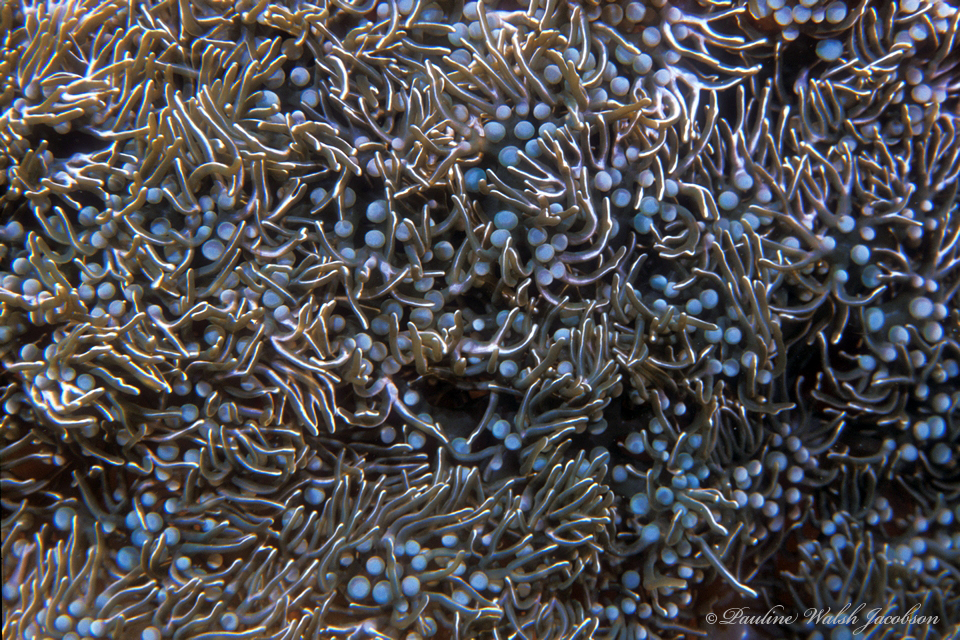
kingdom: Animalia
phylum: Cnidaria
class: Anthozoa
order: Actiniaria
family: Aliciidae
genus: Lebrunia
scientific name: Lebrunia neglecta
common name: Branching anemone
